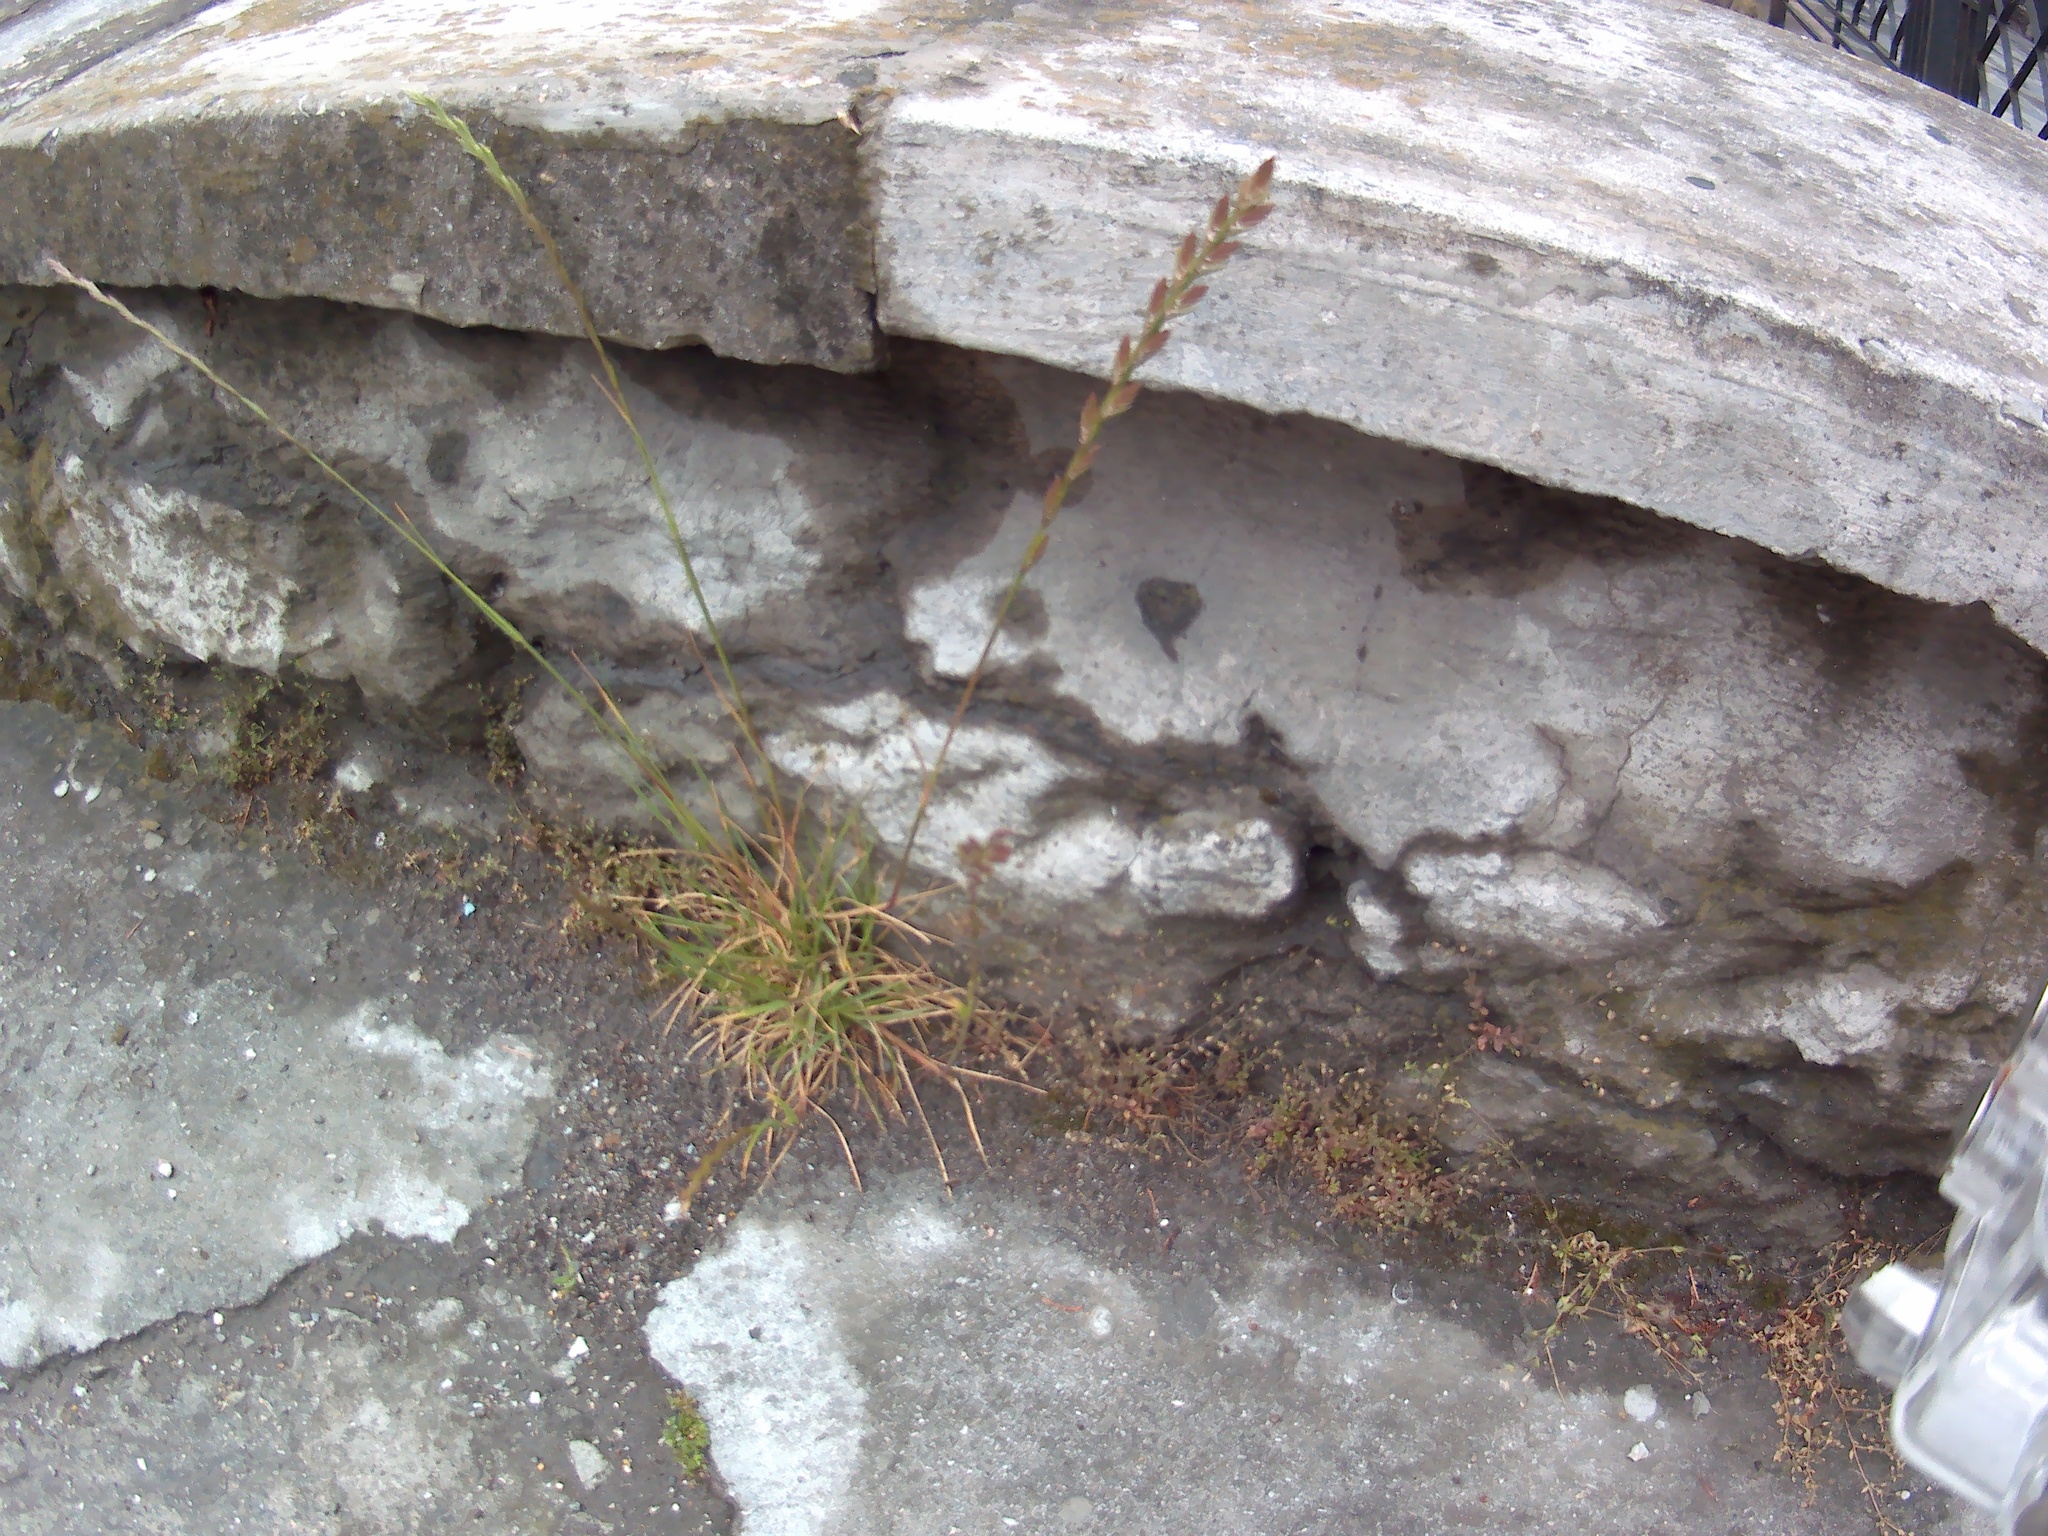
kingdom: Plantae
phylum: Tracheophyta
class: Liliopsida
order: Poales
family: Poaceae
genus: Lolium
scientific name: Lolium perenne
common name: Perennial ryegrass
